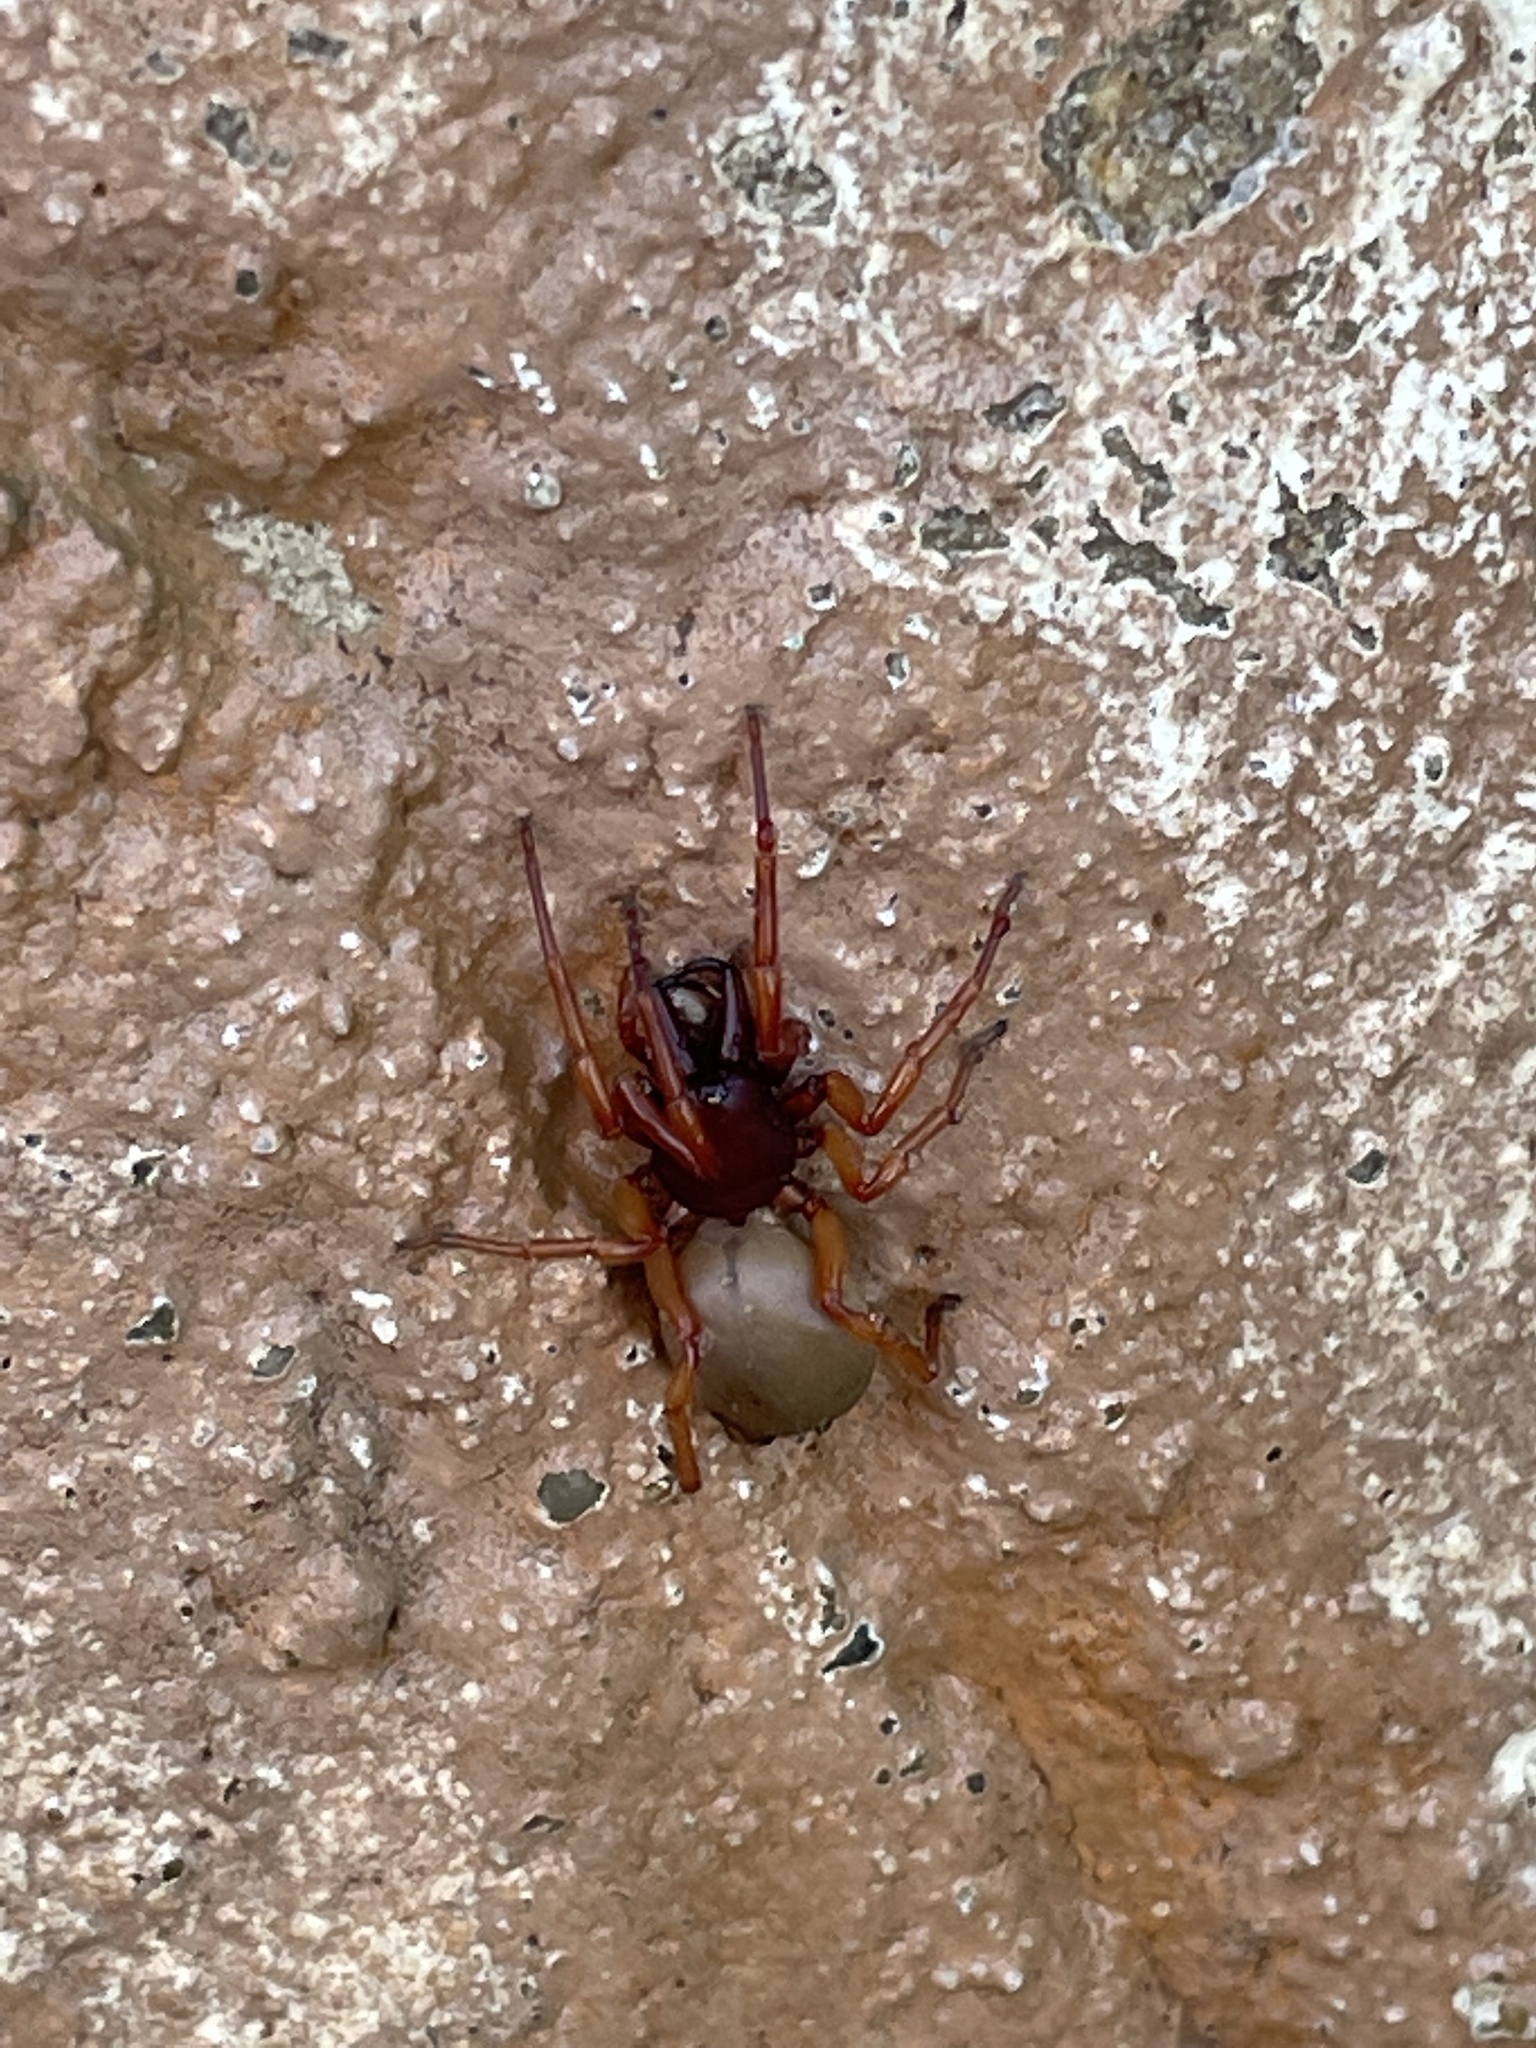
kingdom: Animalia
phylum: Arthropoda
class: Arachnida
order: Araneae
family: Dysderidae
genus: Dysdera
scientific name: Dysdera crocata
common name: Woodlouse spider
